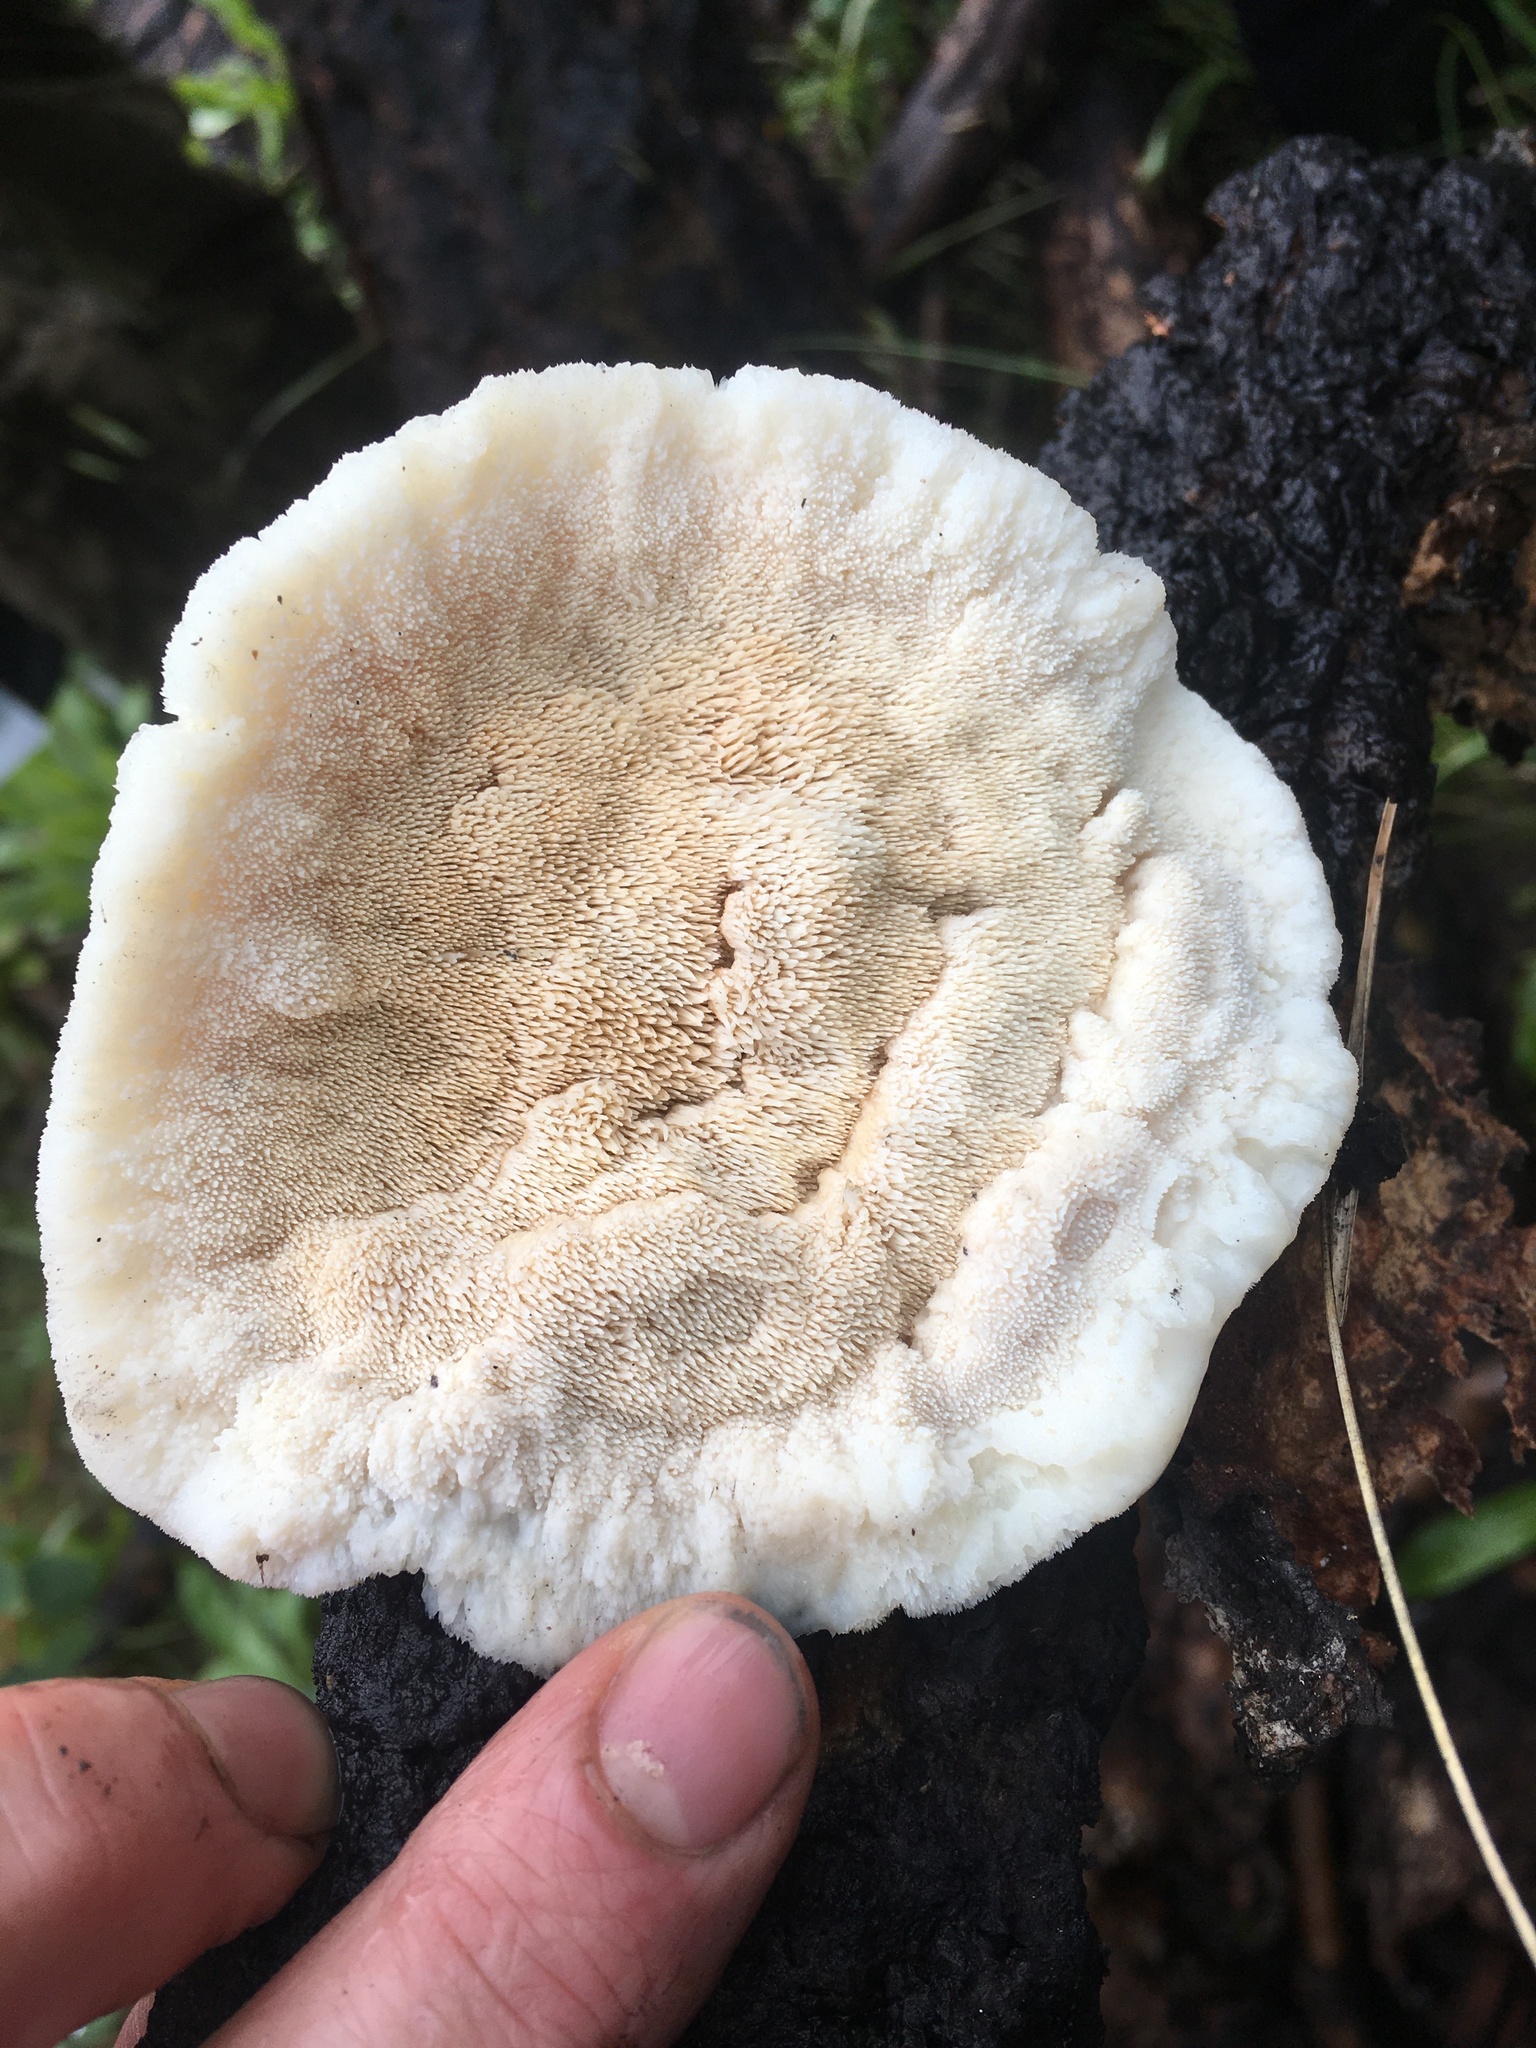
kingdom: Fungi
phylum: Basidiomycota
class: Agaricomycetes
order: Polyporales
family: Meruliaceae
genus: Donkia
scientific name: Donkia pulcherrima
